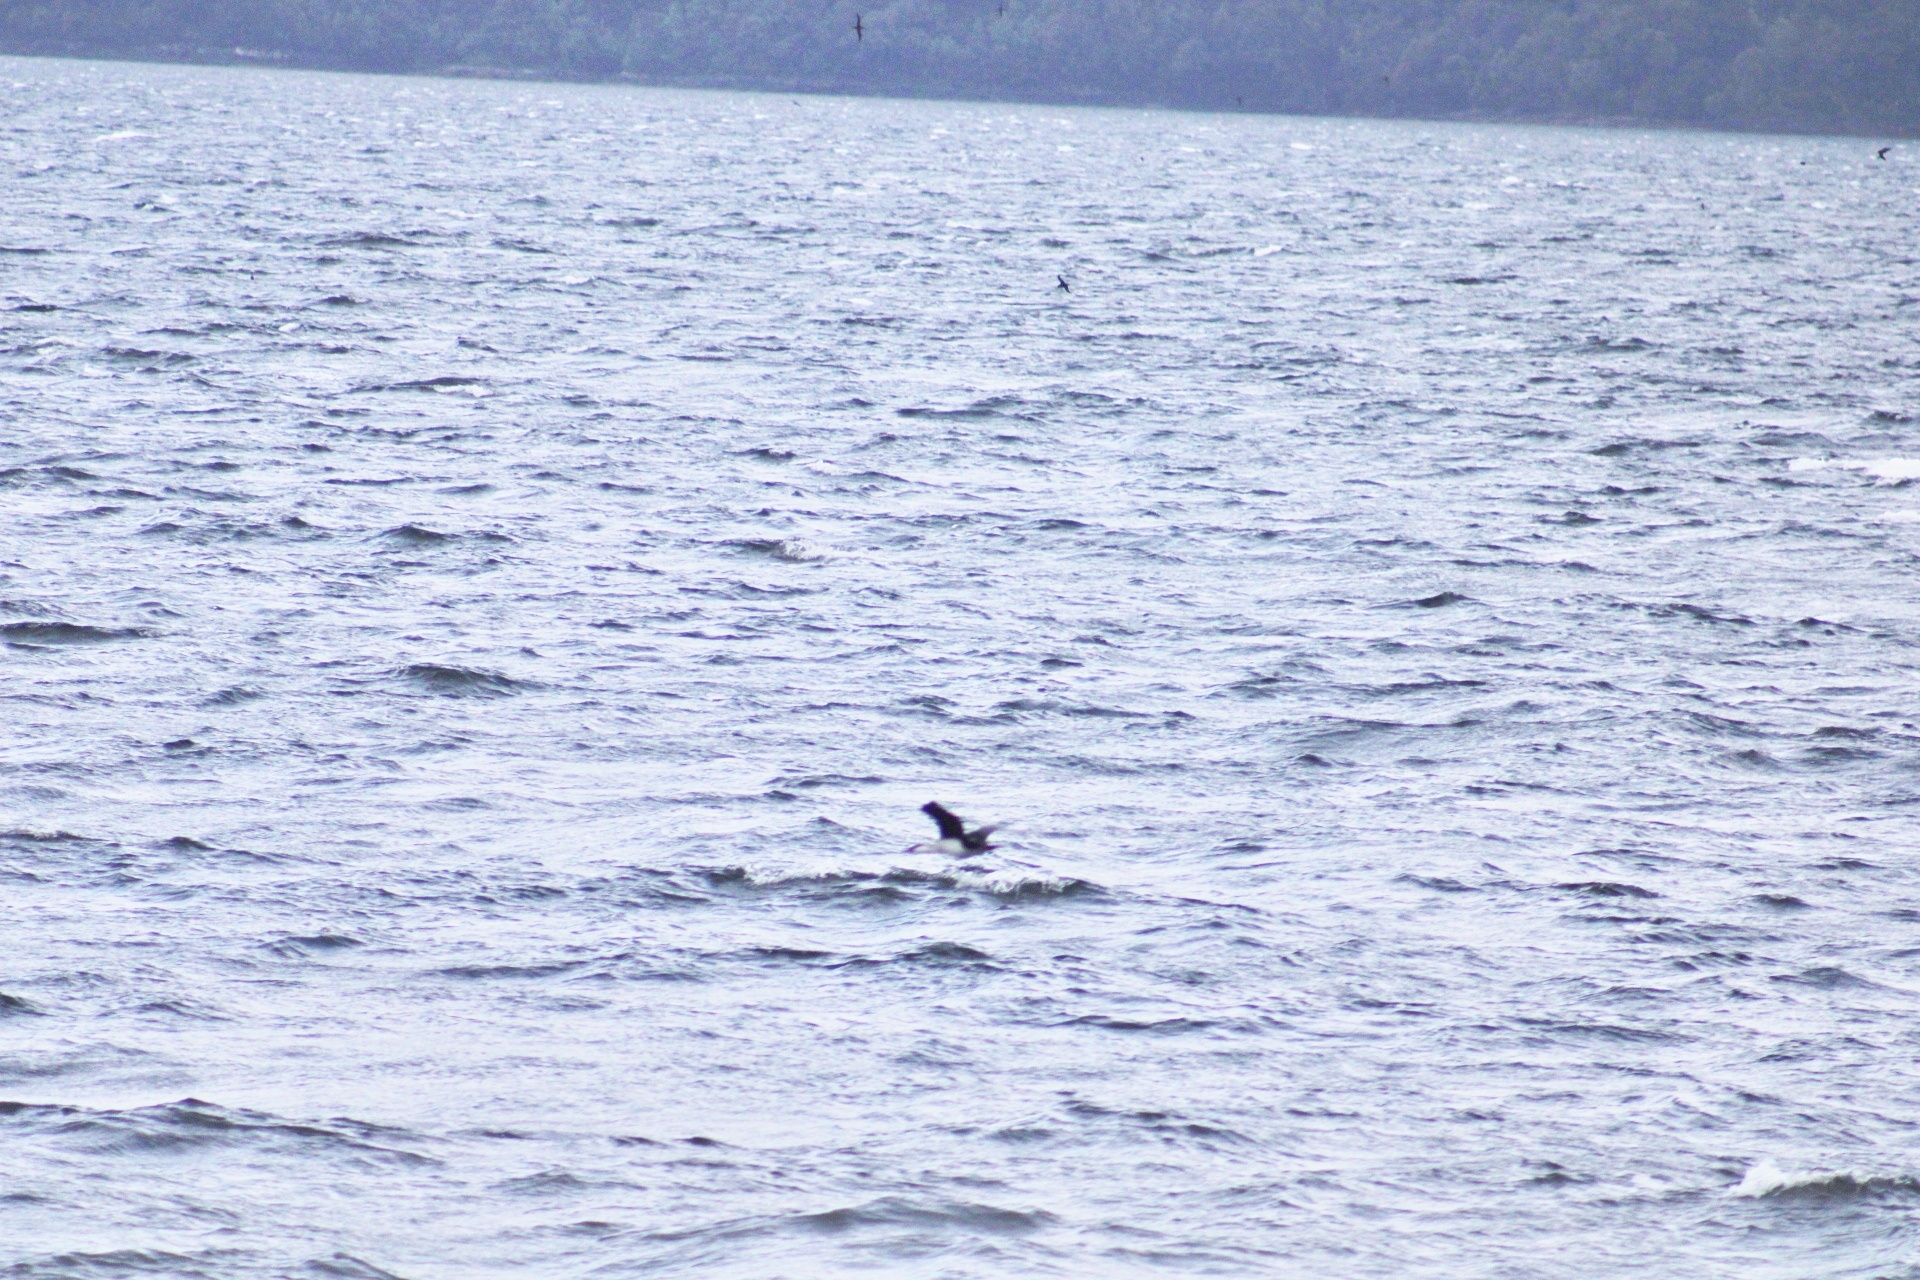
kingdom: Animalia
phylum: Chordata
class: Aves
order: Suliformes
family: Phalacrocoracidae
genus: Leucocarbo
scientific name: Leucocarbo atriceps
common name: Imperial shag
